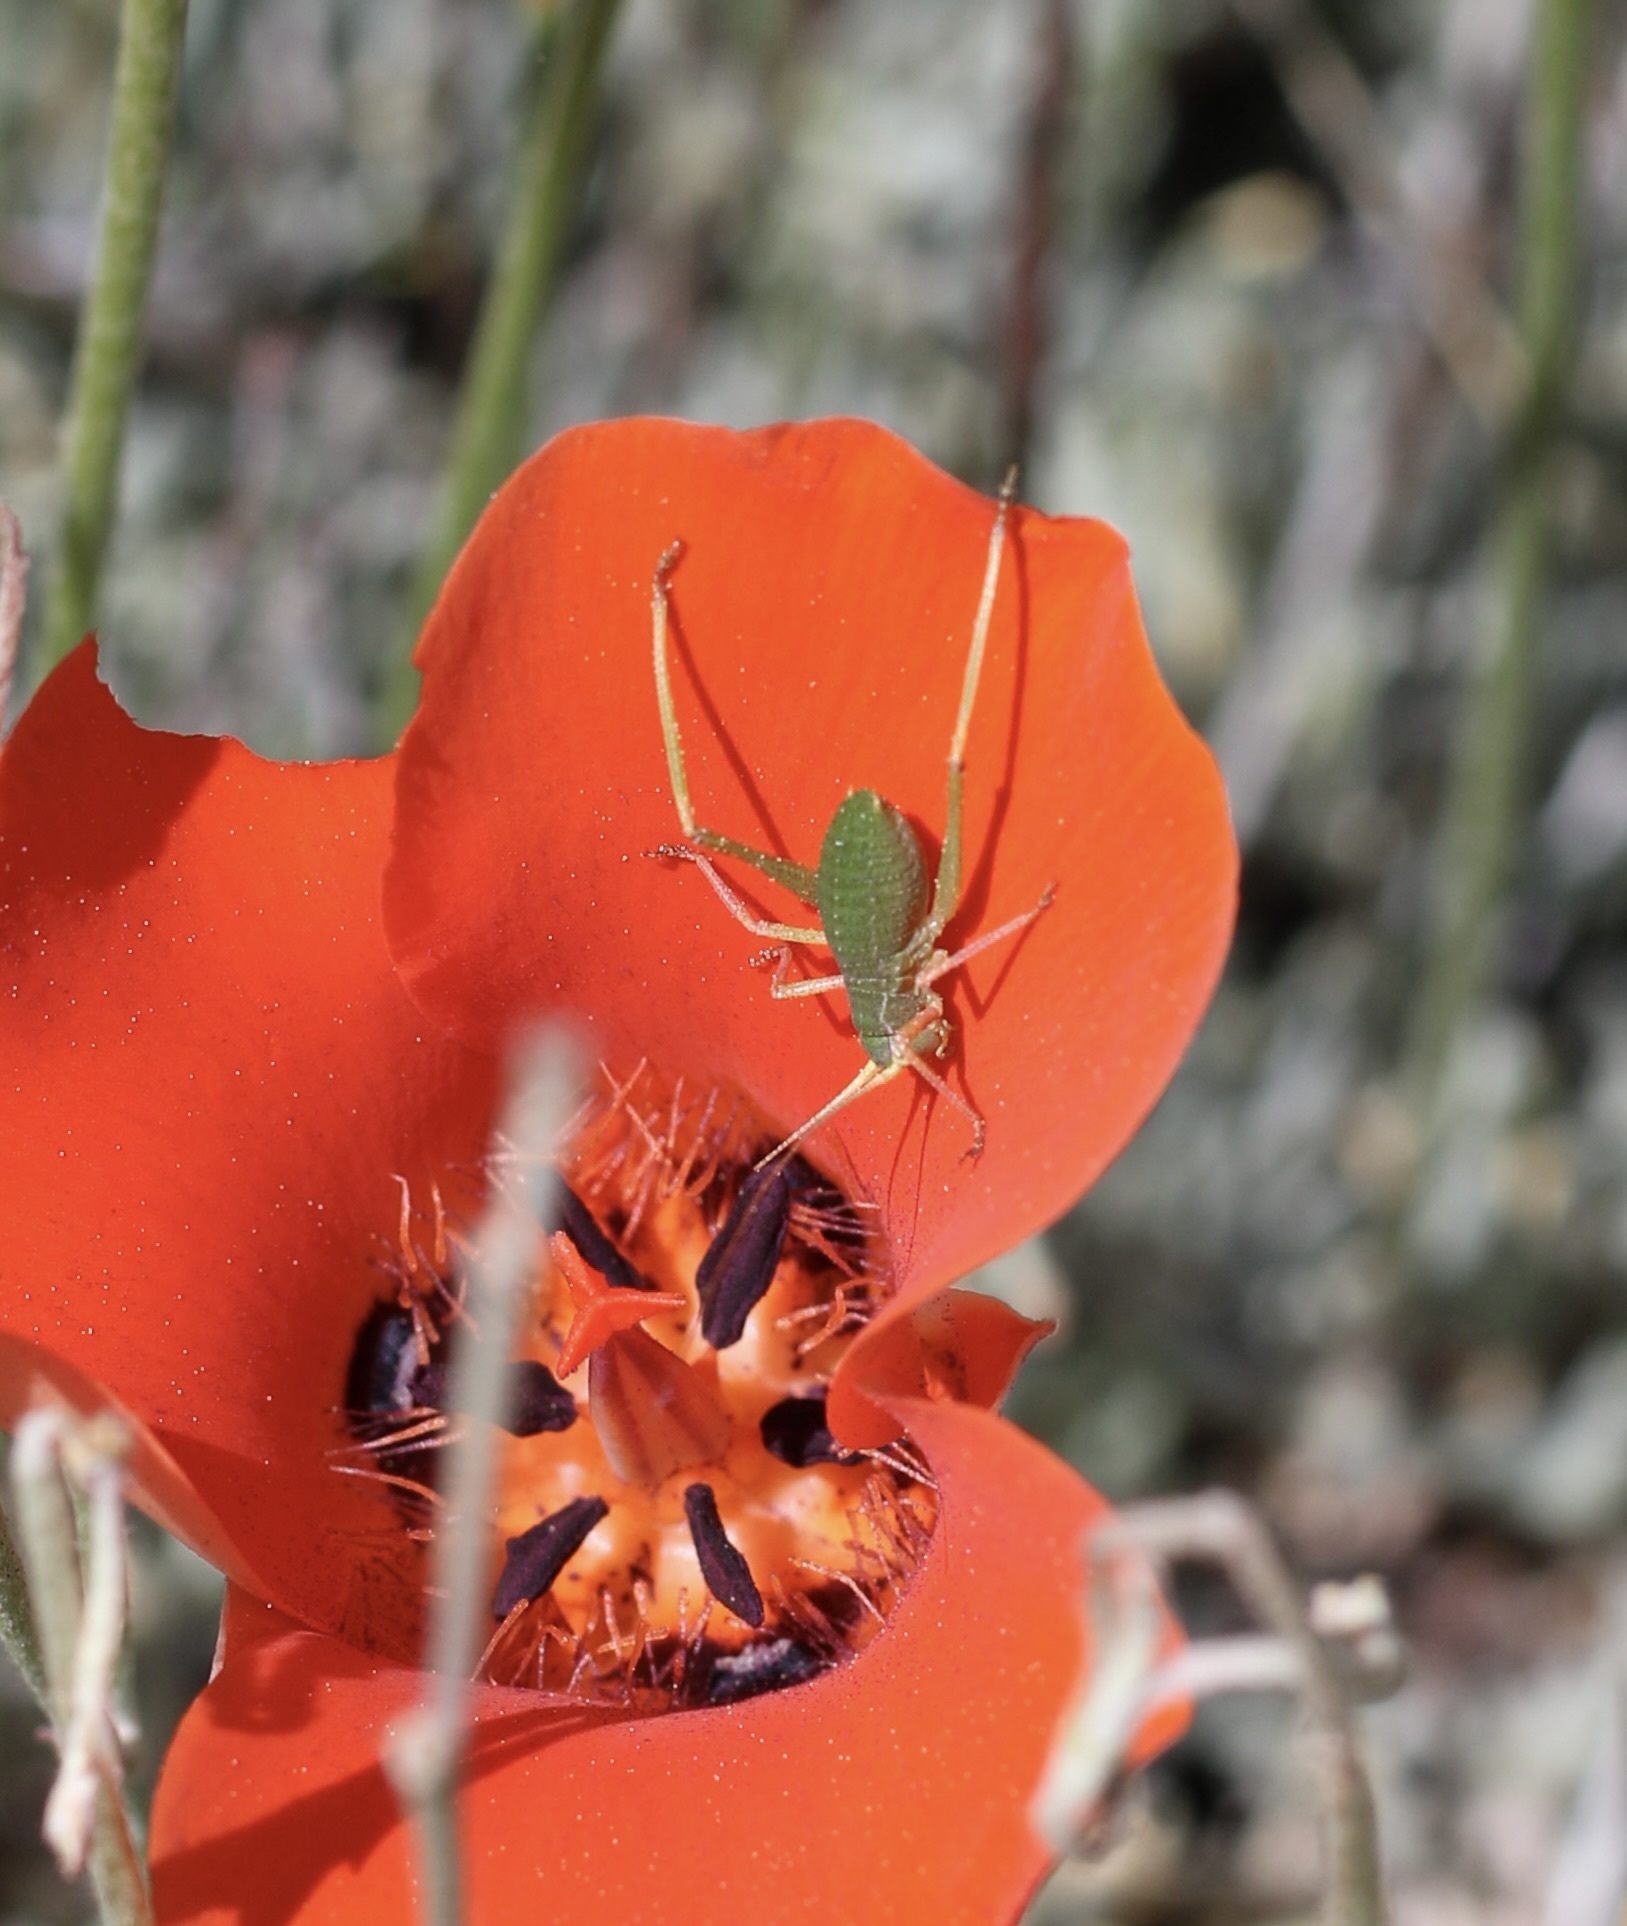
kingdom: Animalia
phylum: Arthropoda
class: Insecta
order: Orthoptera
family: Tettigoniidae
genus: Platylyra
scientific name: Platylyra californica
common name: Chaparral false katydid
